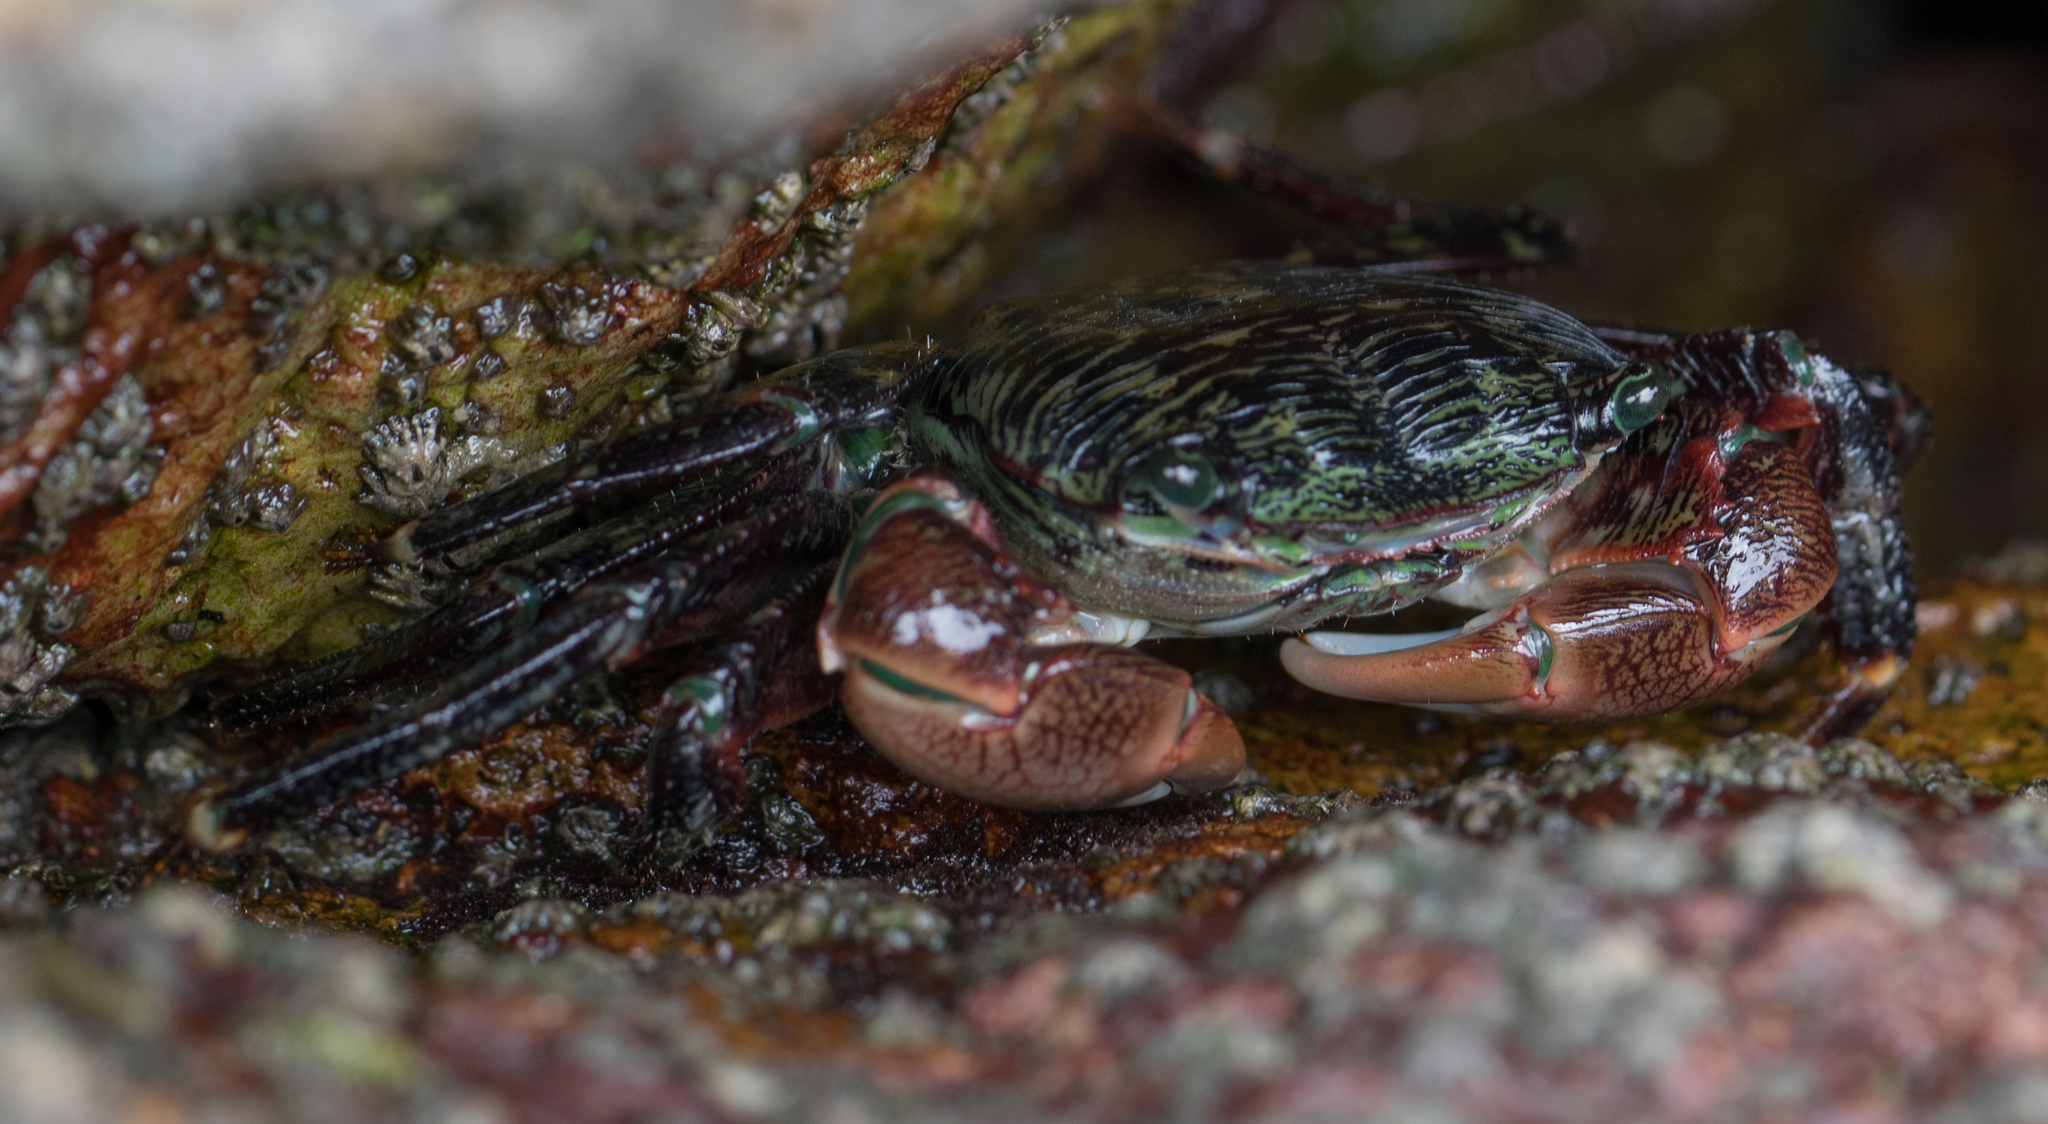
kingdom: Animalia
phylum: Arthropoda
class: Malacostraca
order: Decapoda
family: Grapsidae
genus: Pachygrapsus
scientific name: Pachygrapsus crassipes
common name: Striped shore crab
